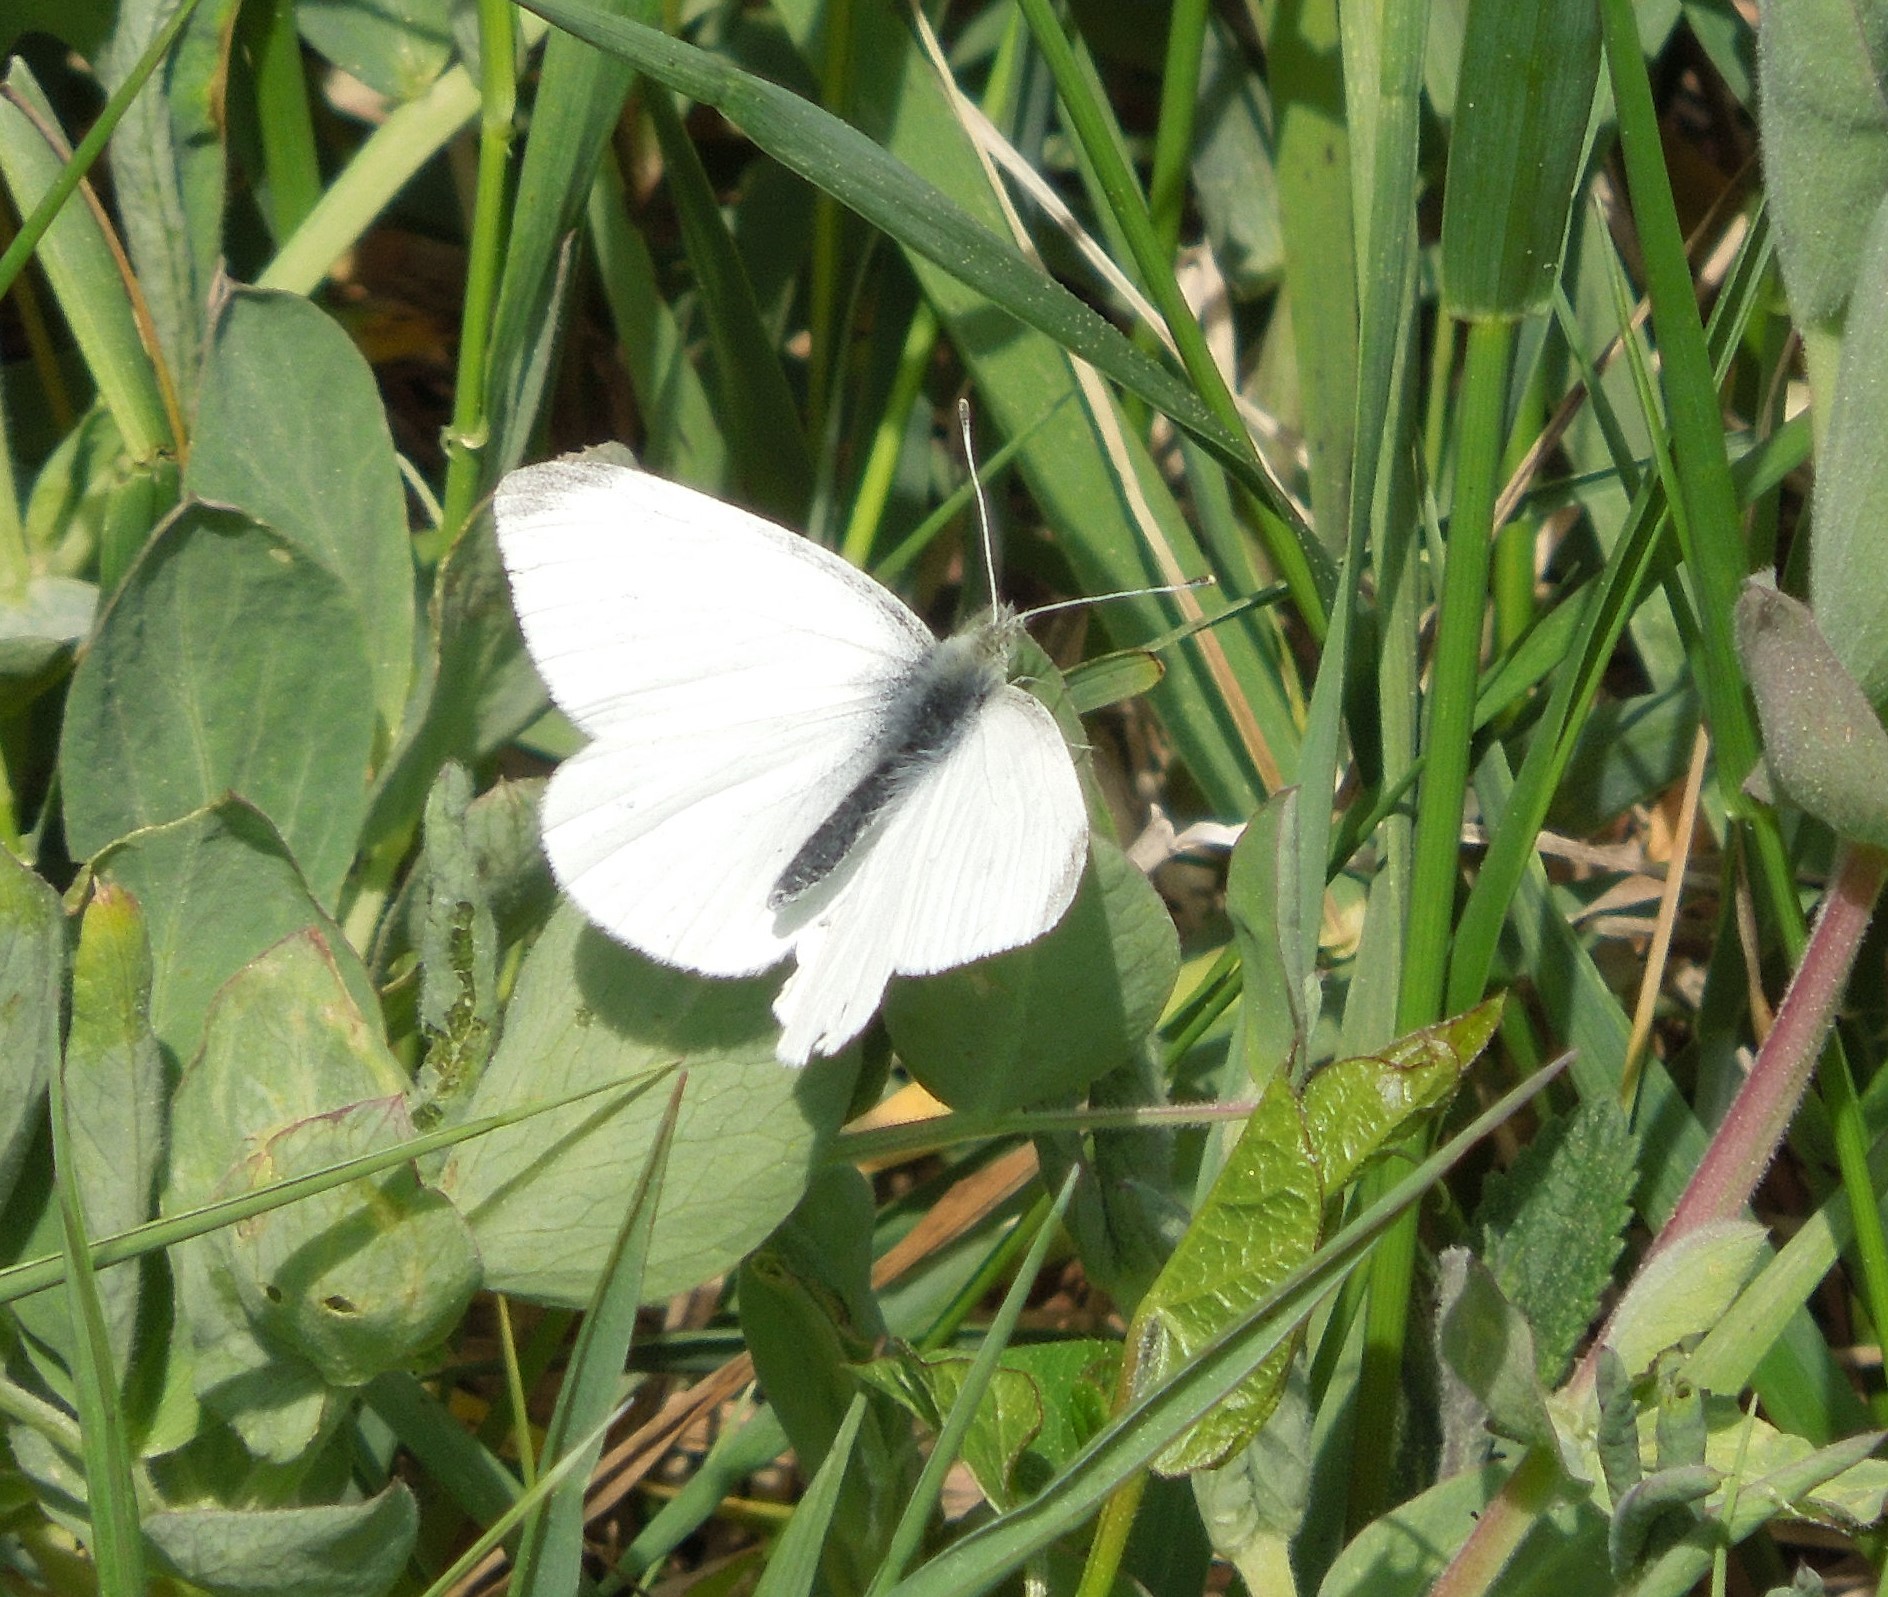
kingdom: Animalia
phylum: Arthropoda
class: Insecta
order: Lepidoptera
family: Pieridae
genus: Pieris
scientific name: Pieris oleracea
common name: Mustard white
